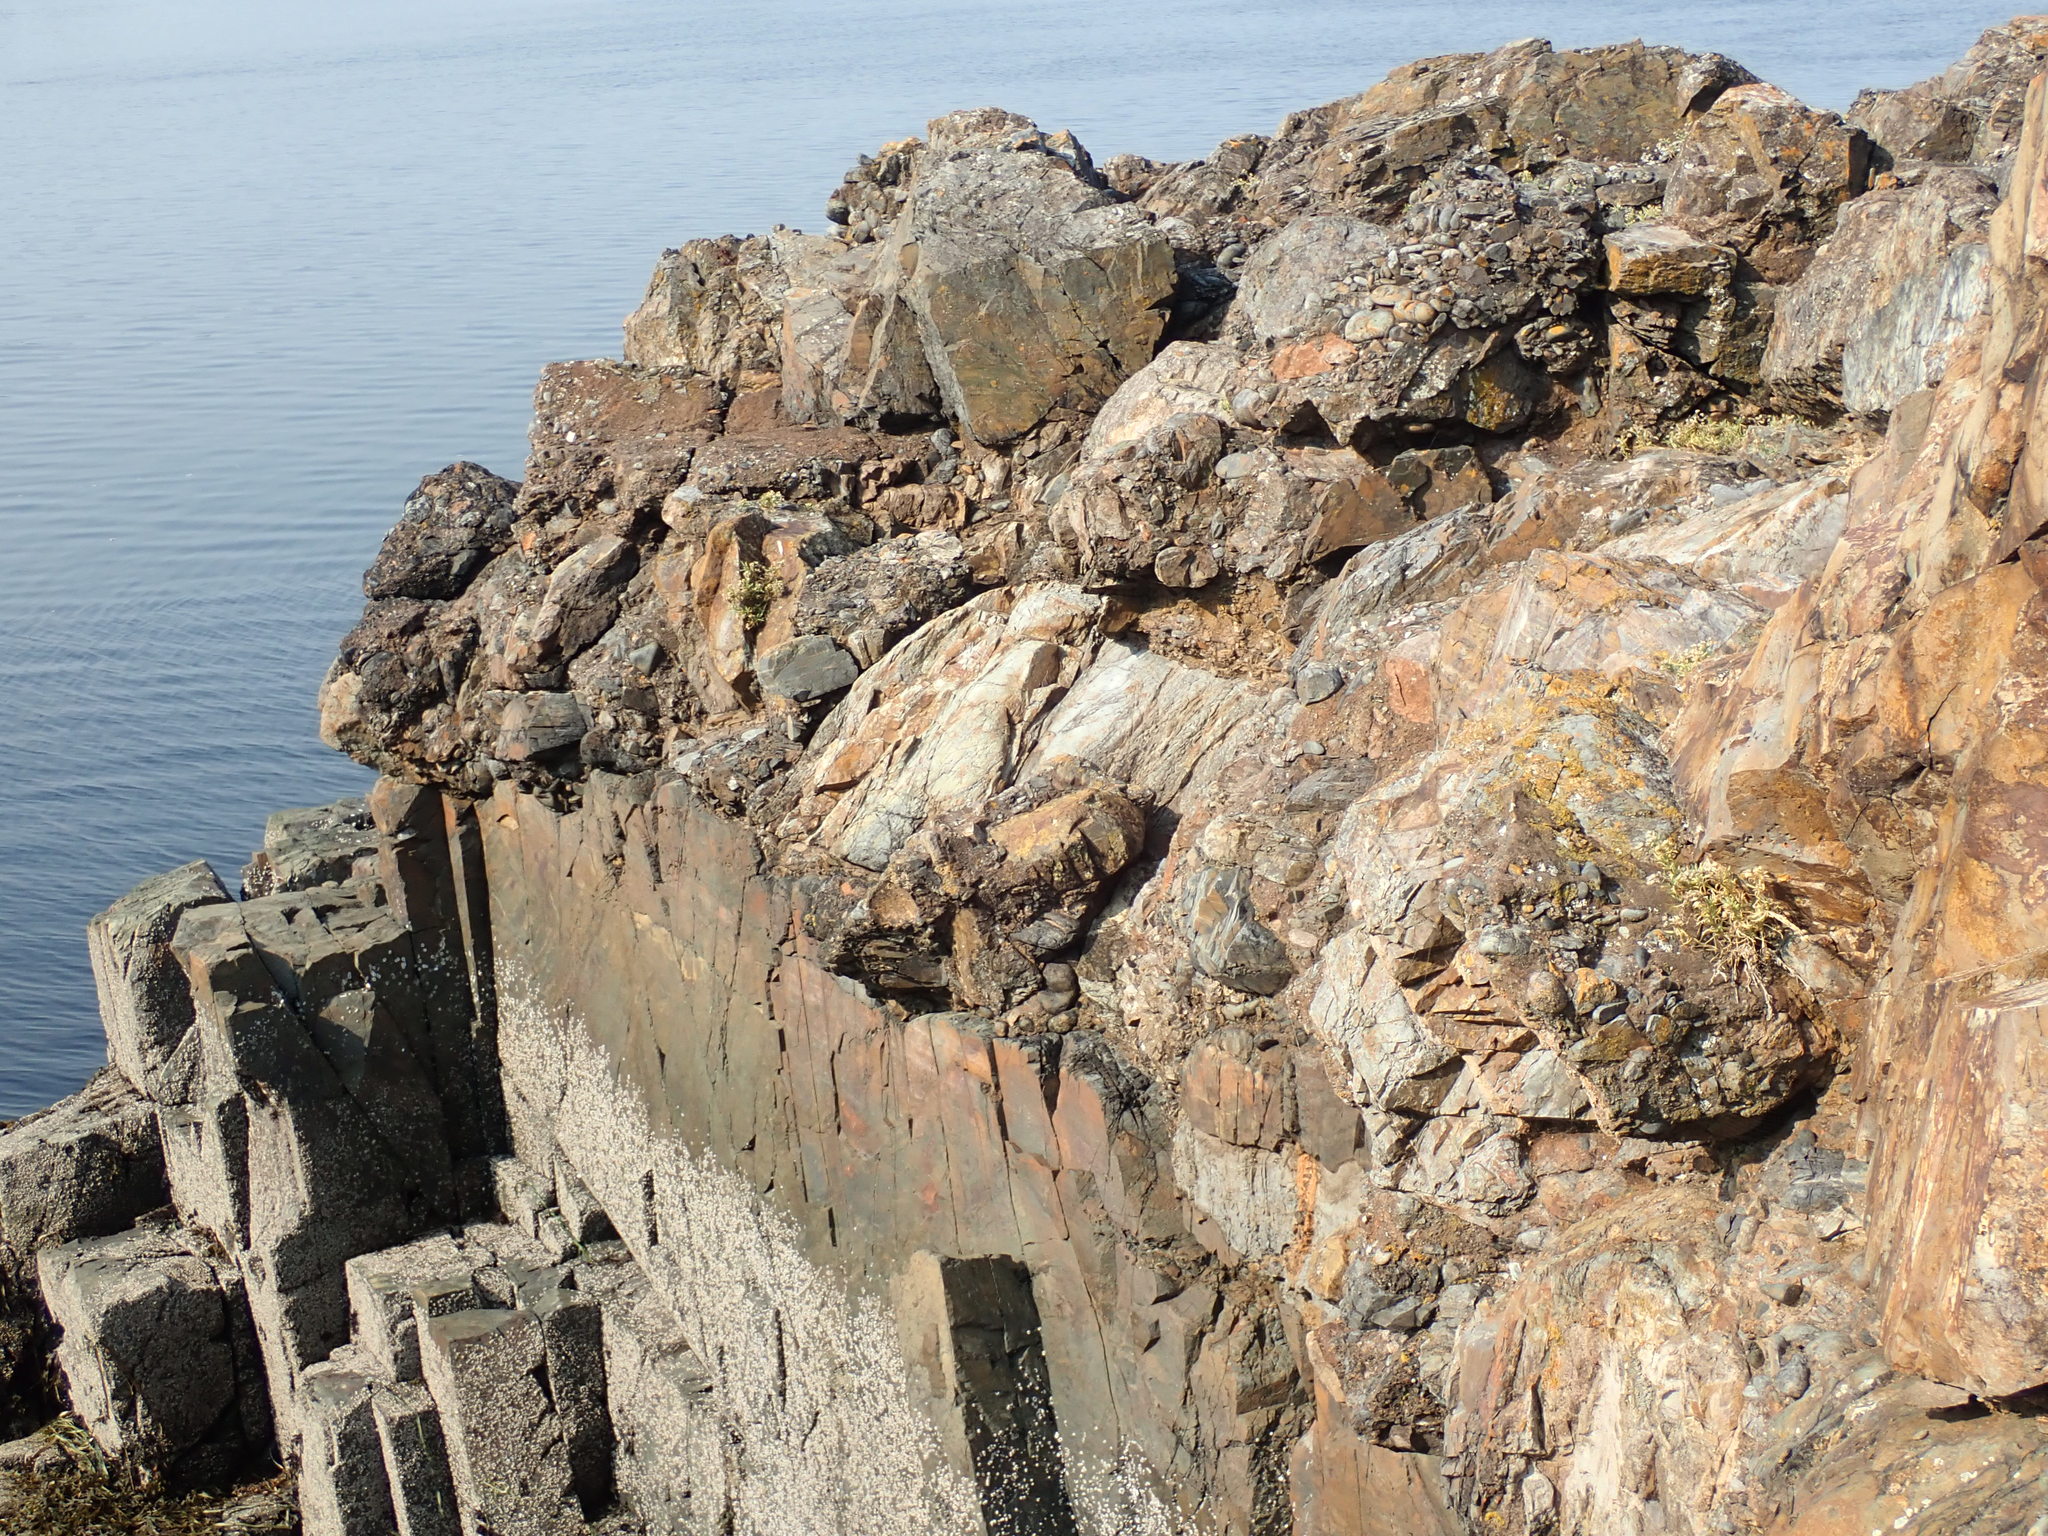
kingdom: Plantae
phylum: Bryophyta
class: Bryopsida
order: Orthotrichales
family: Orthotrichaceae
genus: Plenogemma
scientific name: Plenogemma phyllantha
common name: Frizzled pincushion
